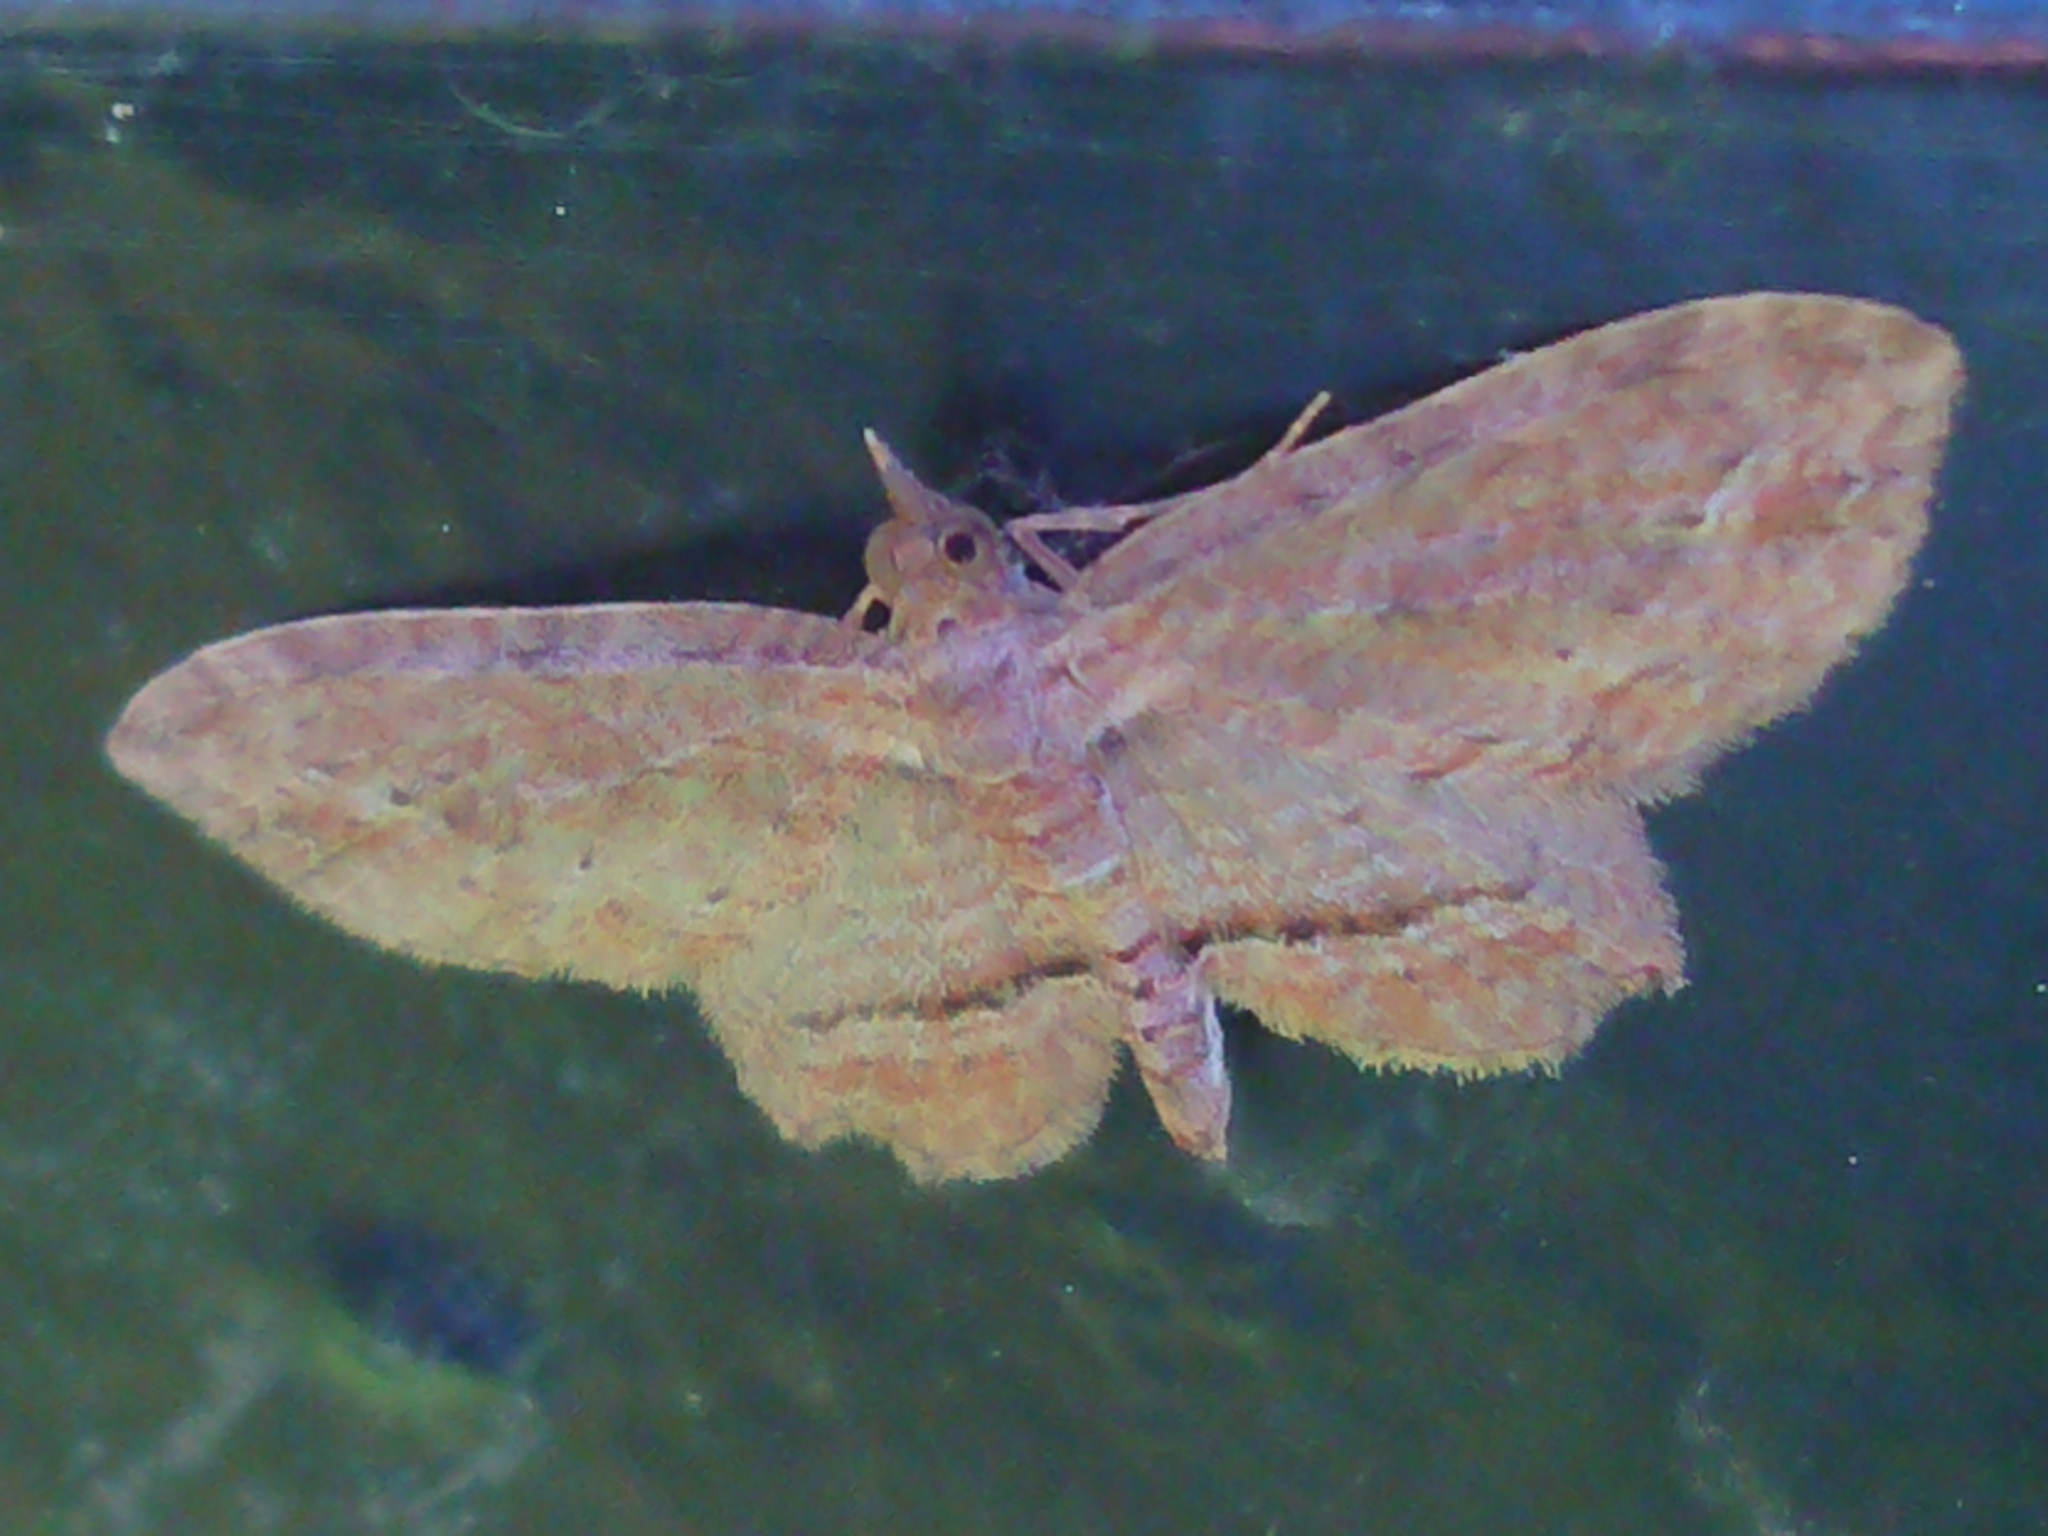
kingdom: Animalia
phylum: Arthropoda
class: Insecta
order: Lepidoptera
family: Geometridae
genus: Chloroclystis
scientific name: Chloroclystis filata
